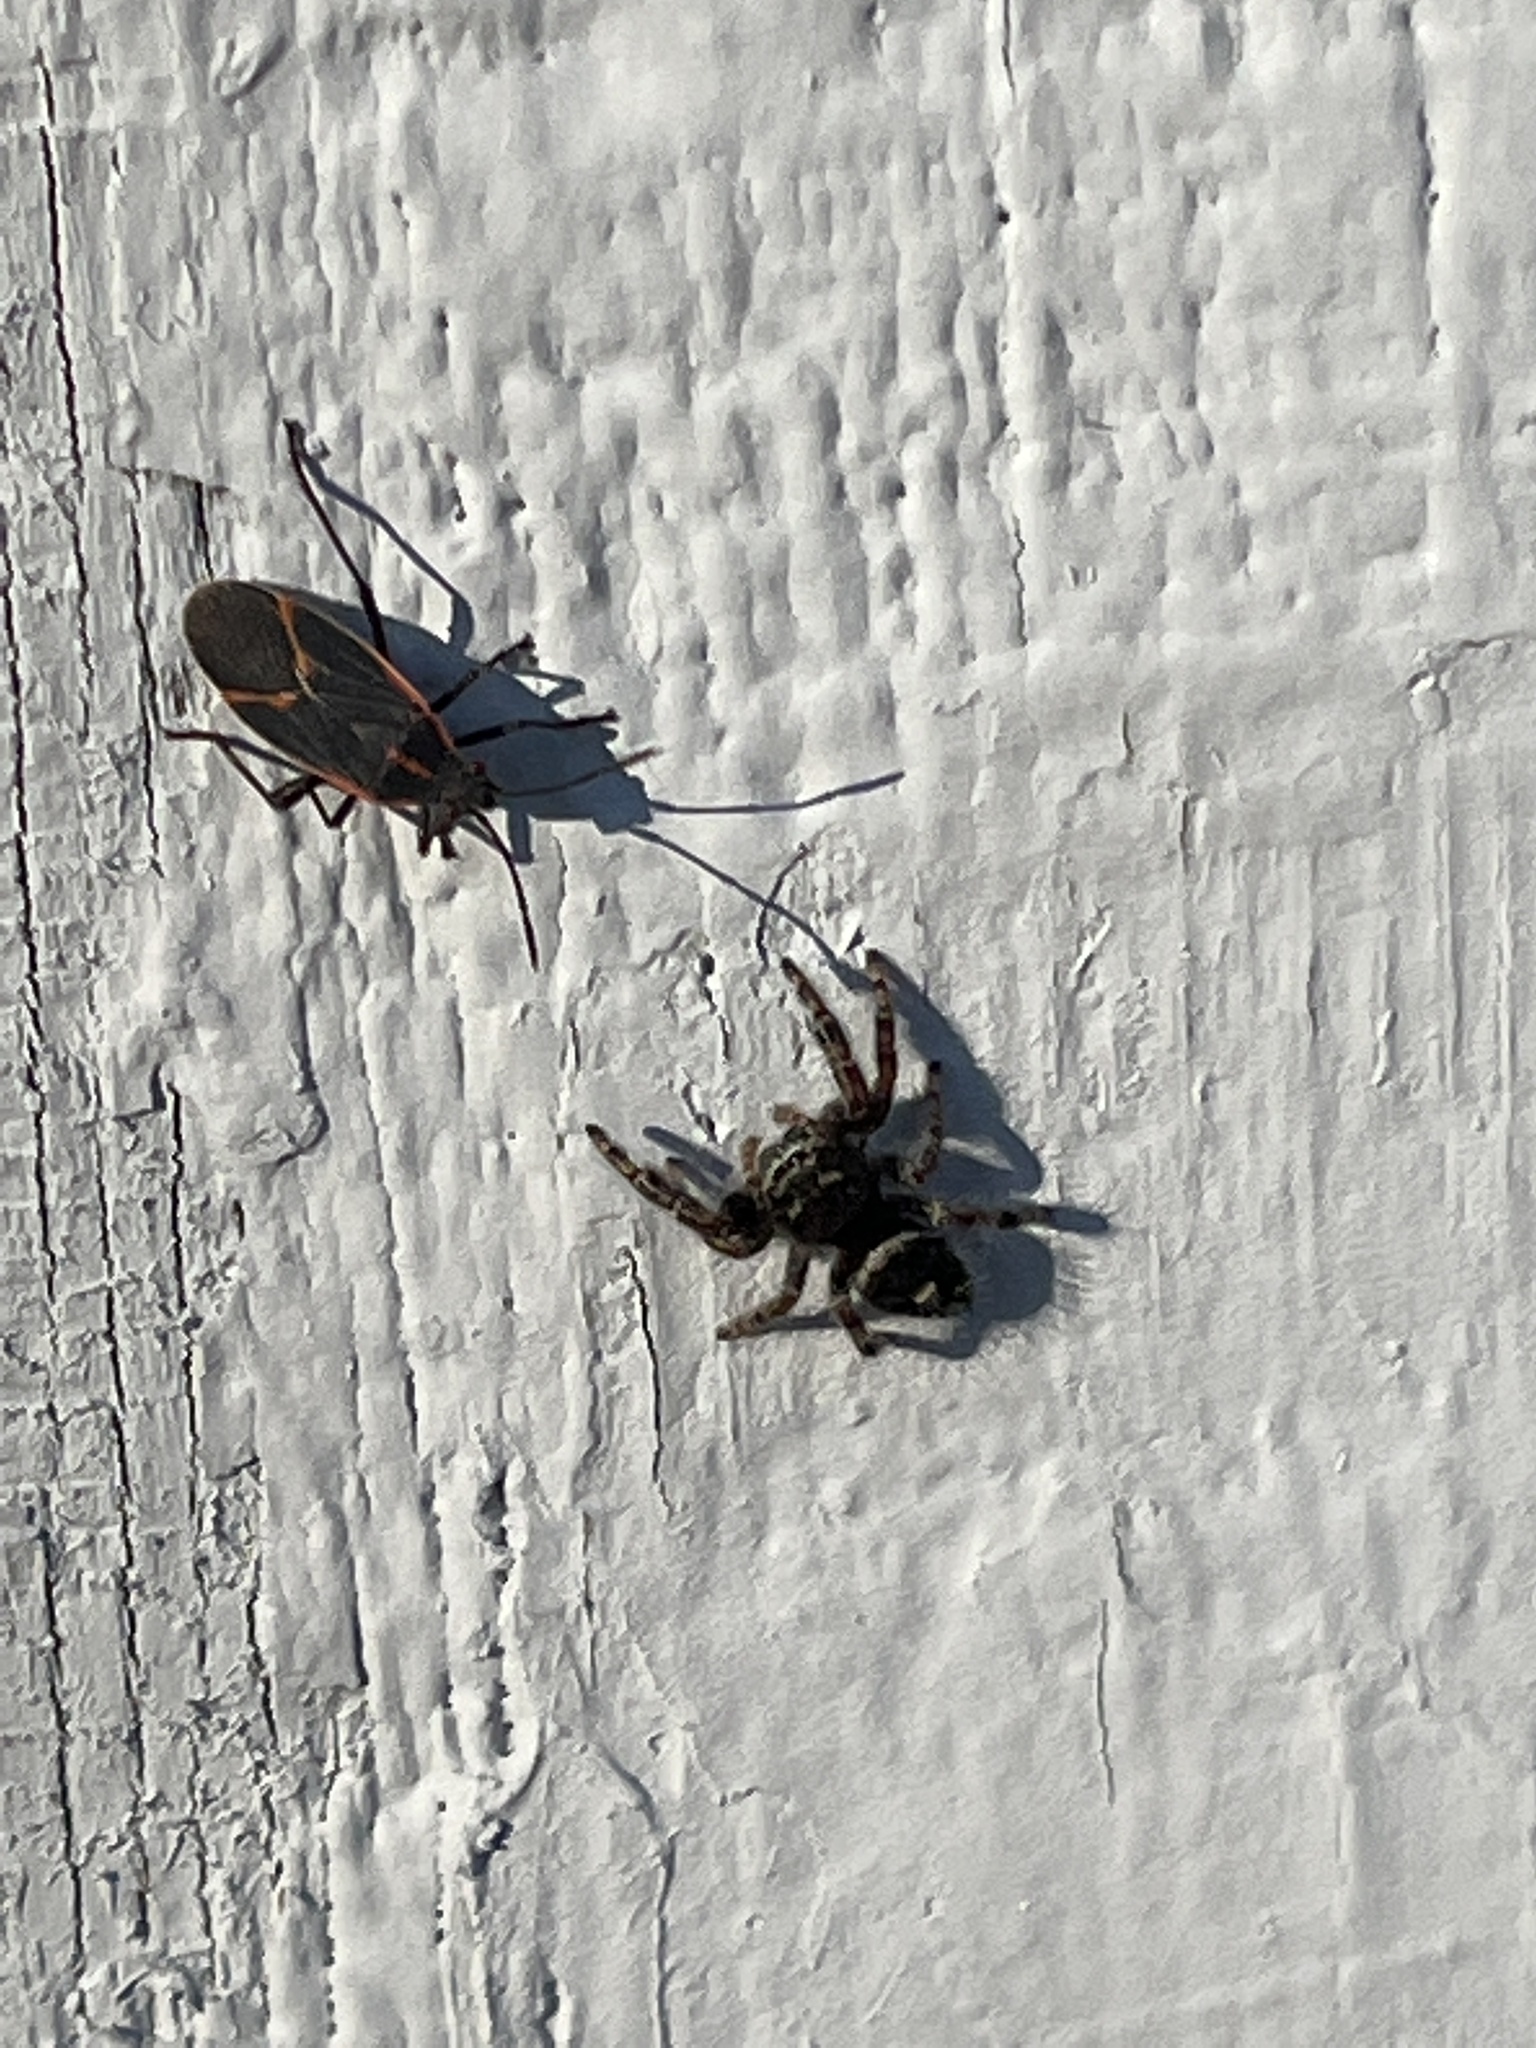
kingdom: Animalia
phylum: Arthropoda
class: Insecta
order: Hemiptera
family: Rhopalidae
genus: Boisea
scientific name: Boisea trivittata
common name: Boxelder bug
